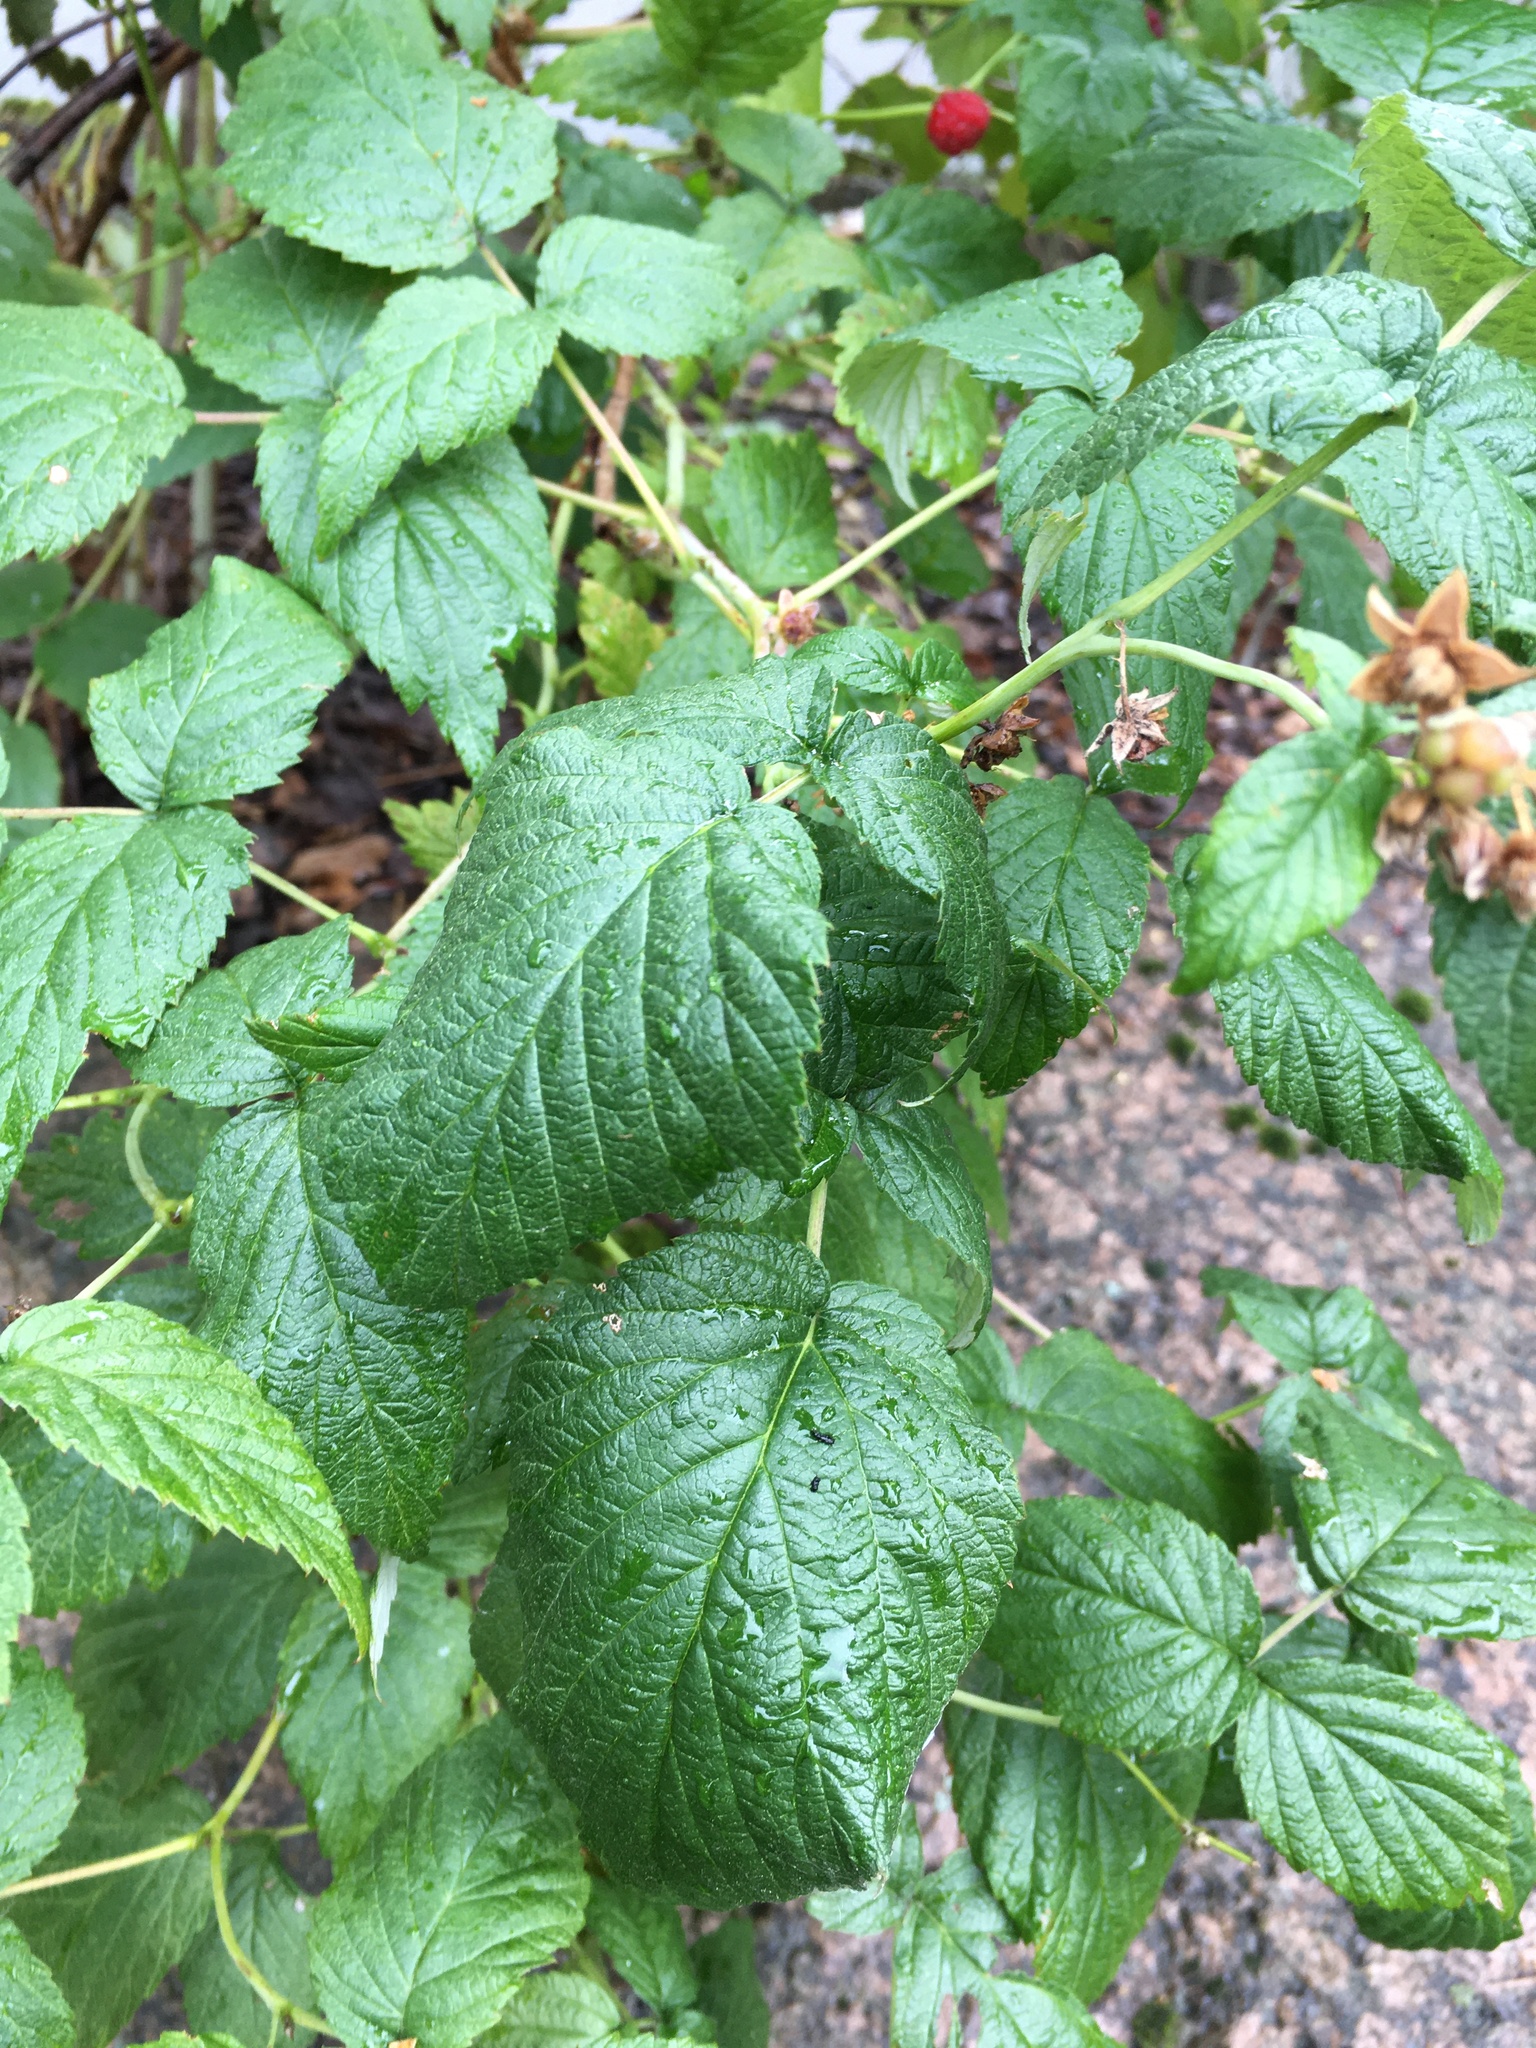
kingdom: Plantae
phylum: Tracheophyta
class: Magnoliopsida
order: Rosales
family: Rosaceae
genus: Rubus
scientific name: Rubus idaeus
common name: Raspberry
